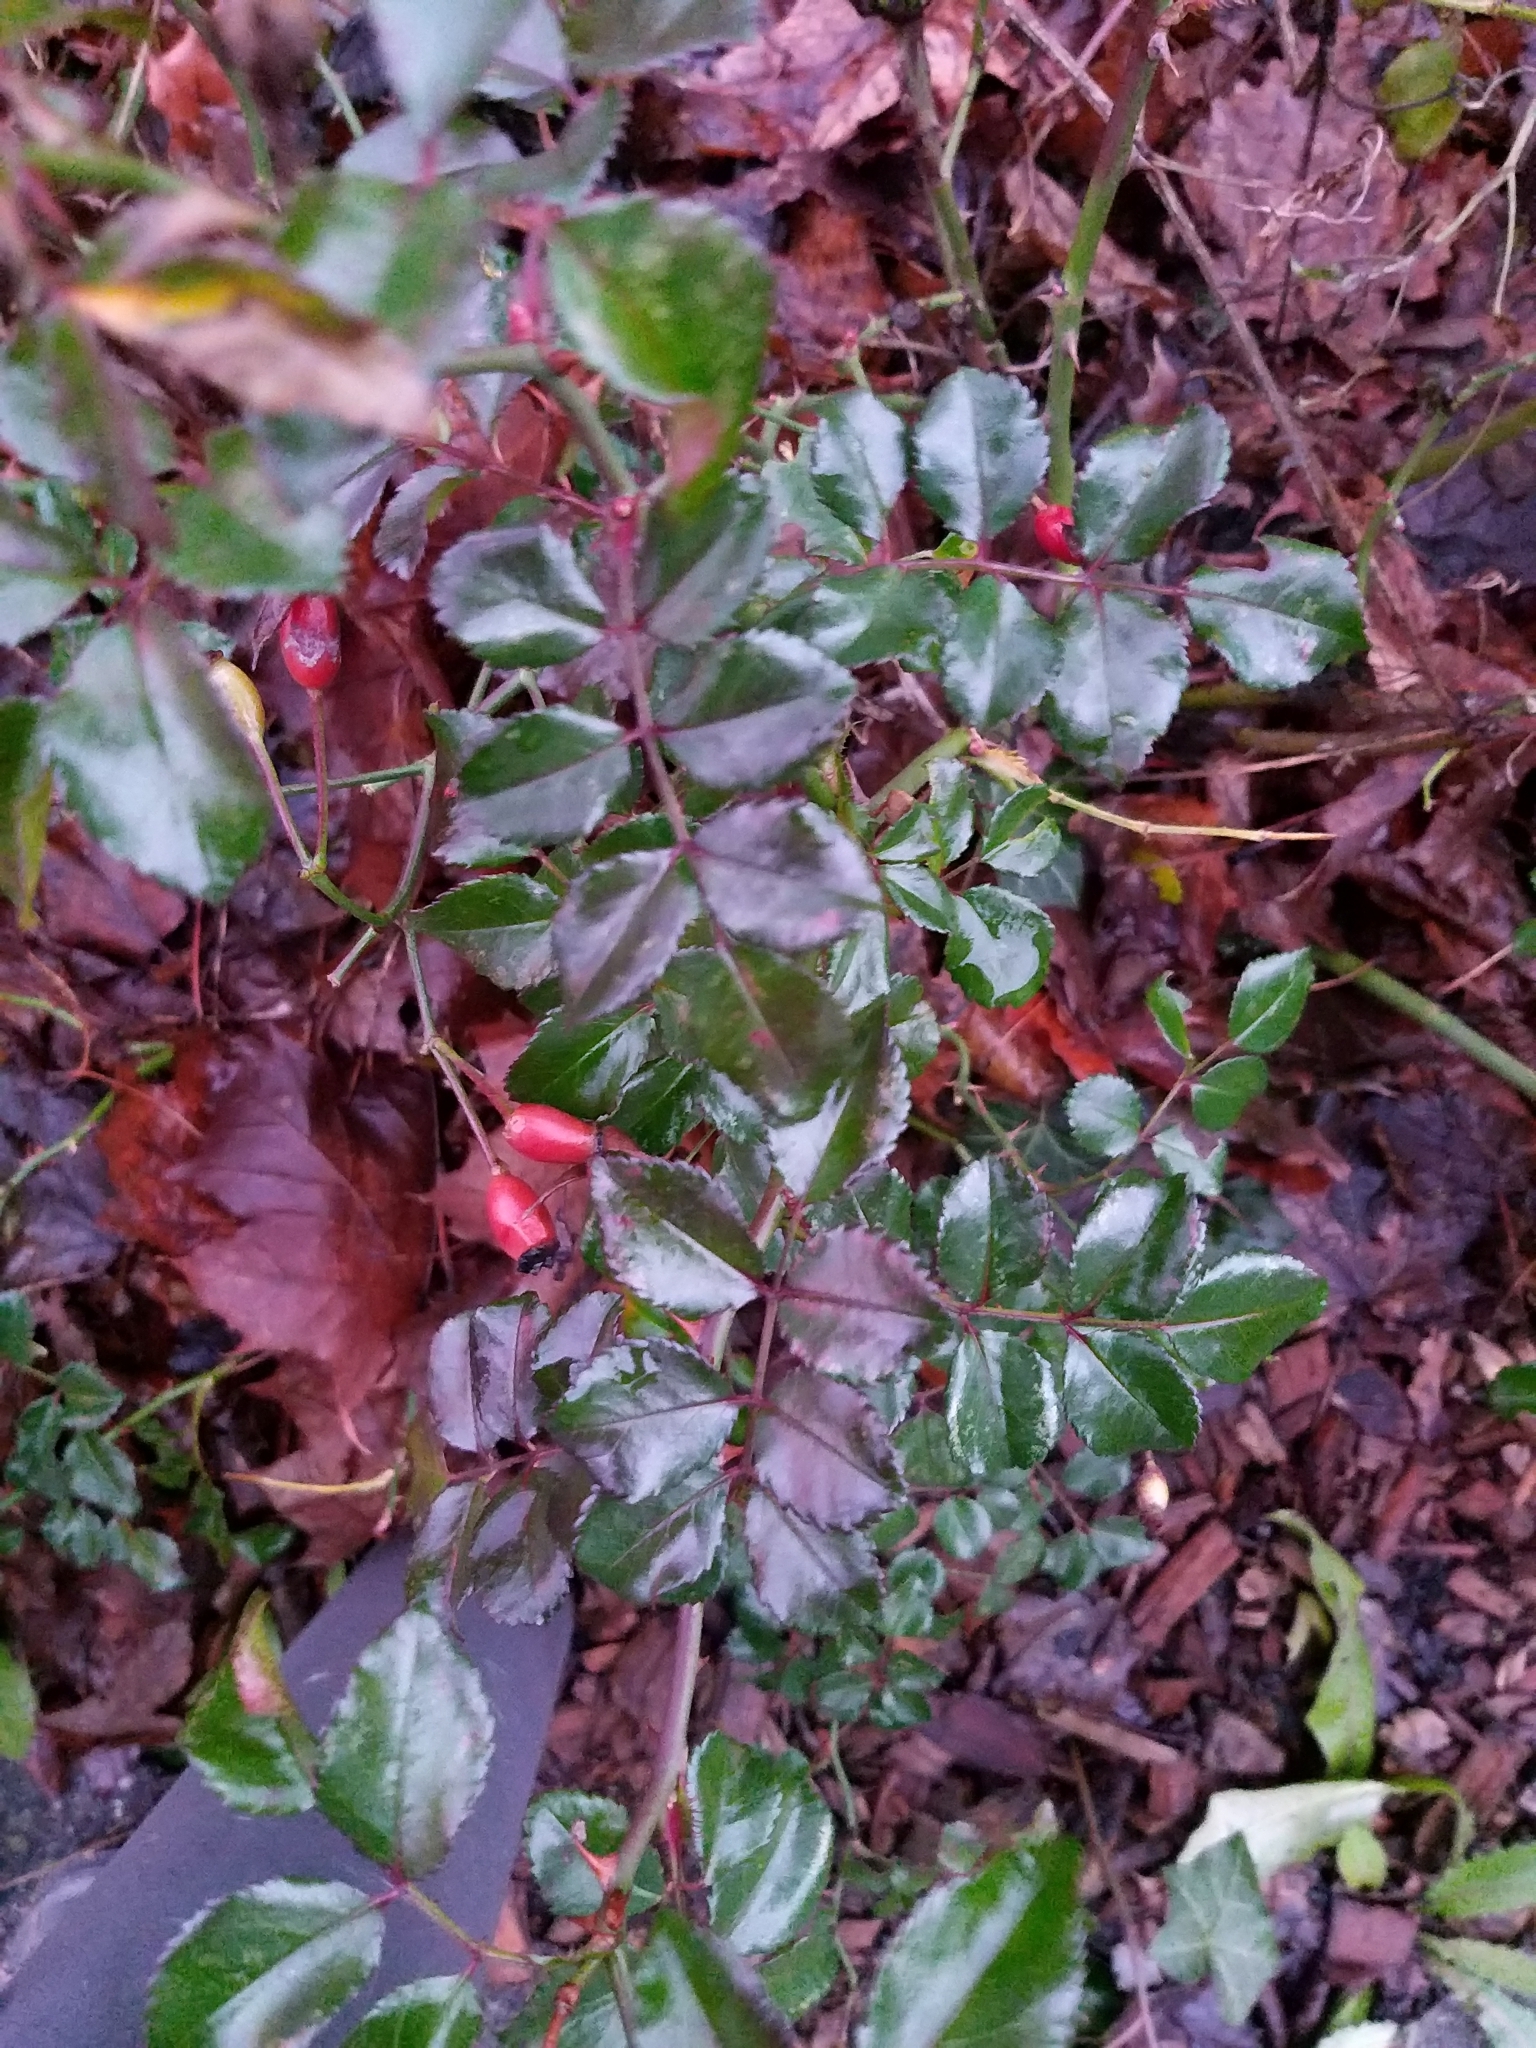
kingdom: Plantae
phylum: Tracheophyta
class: Magnoliopsida
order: Ranunculales
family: Berberidaceae
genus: Mahonia
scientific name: Mahonia aquifolium
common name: Oregon-grape
